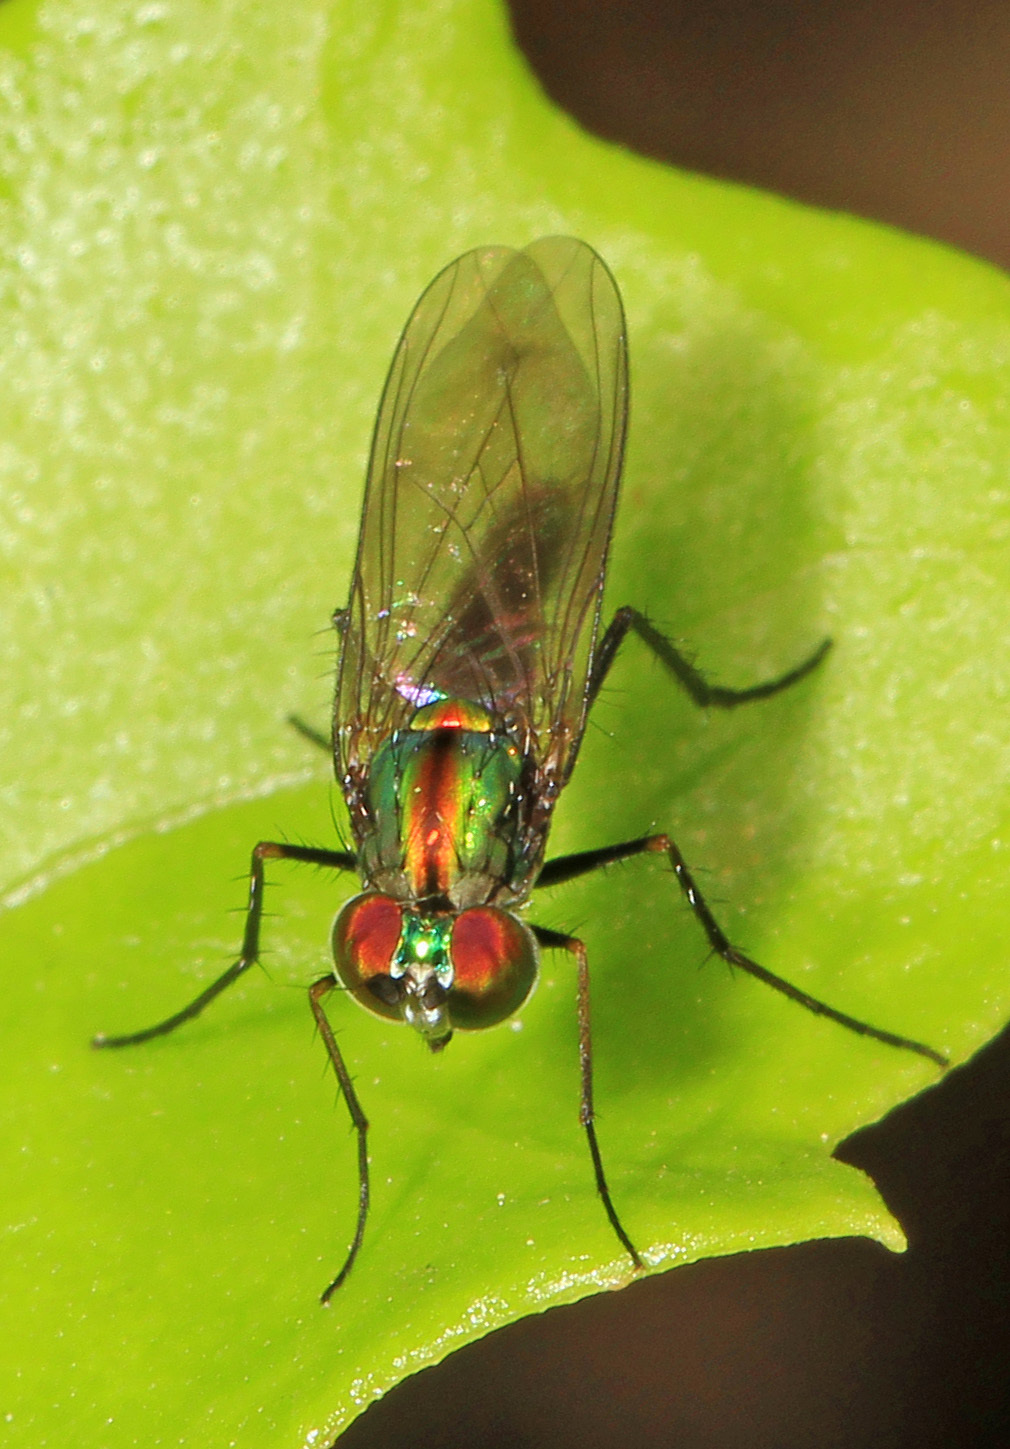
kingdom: Animalia
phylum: Arthropoda
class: Insecta
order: Diptera
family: Dolichopodidae
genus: Plagioneurus
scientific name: Plagioneurus univittatus
